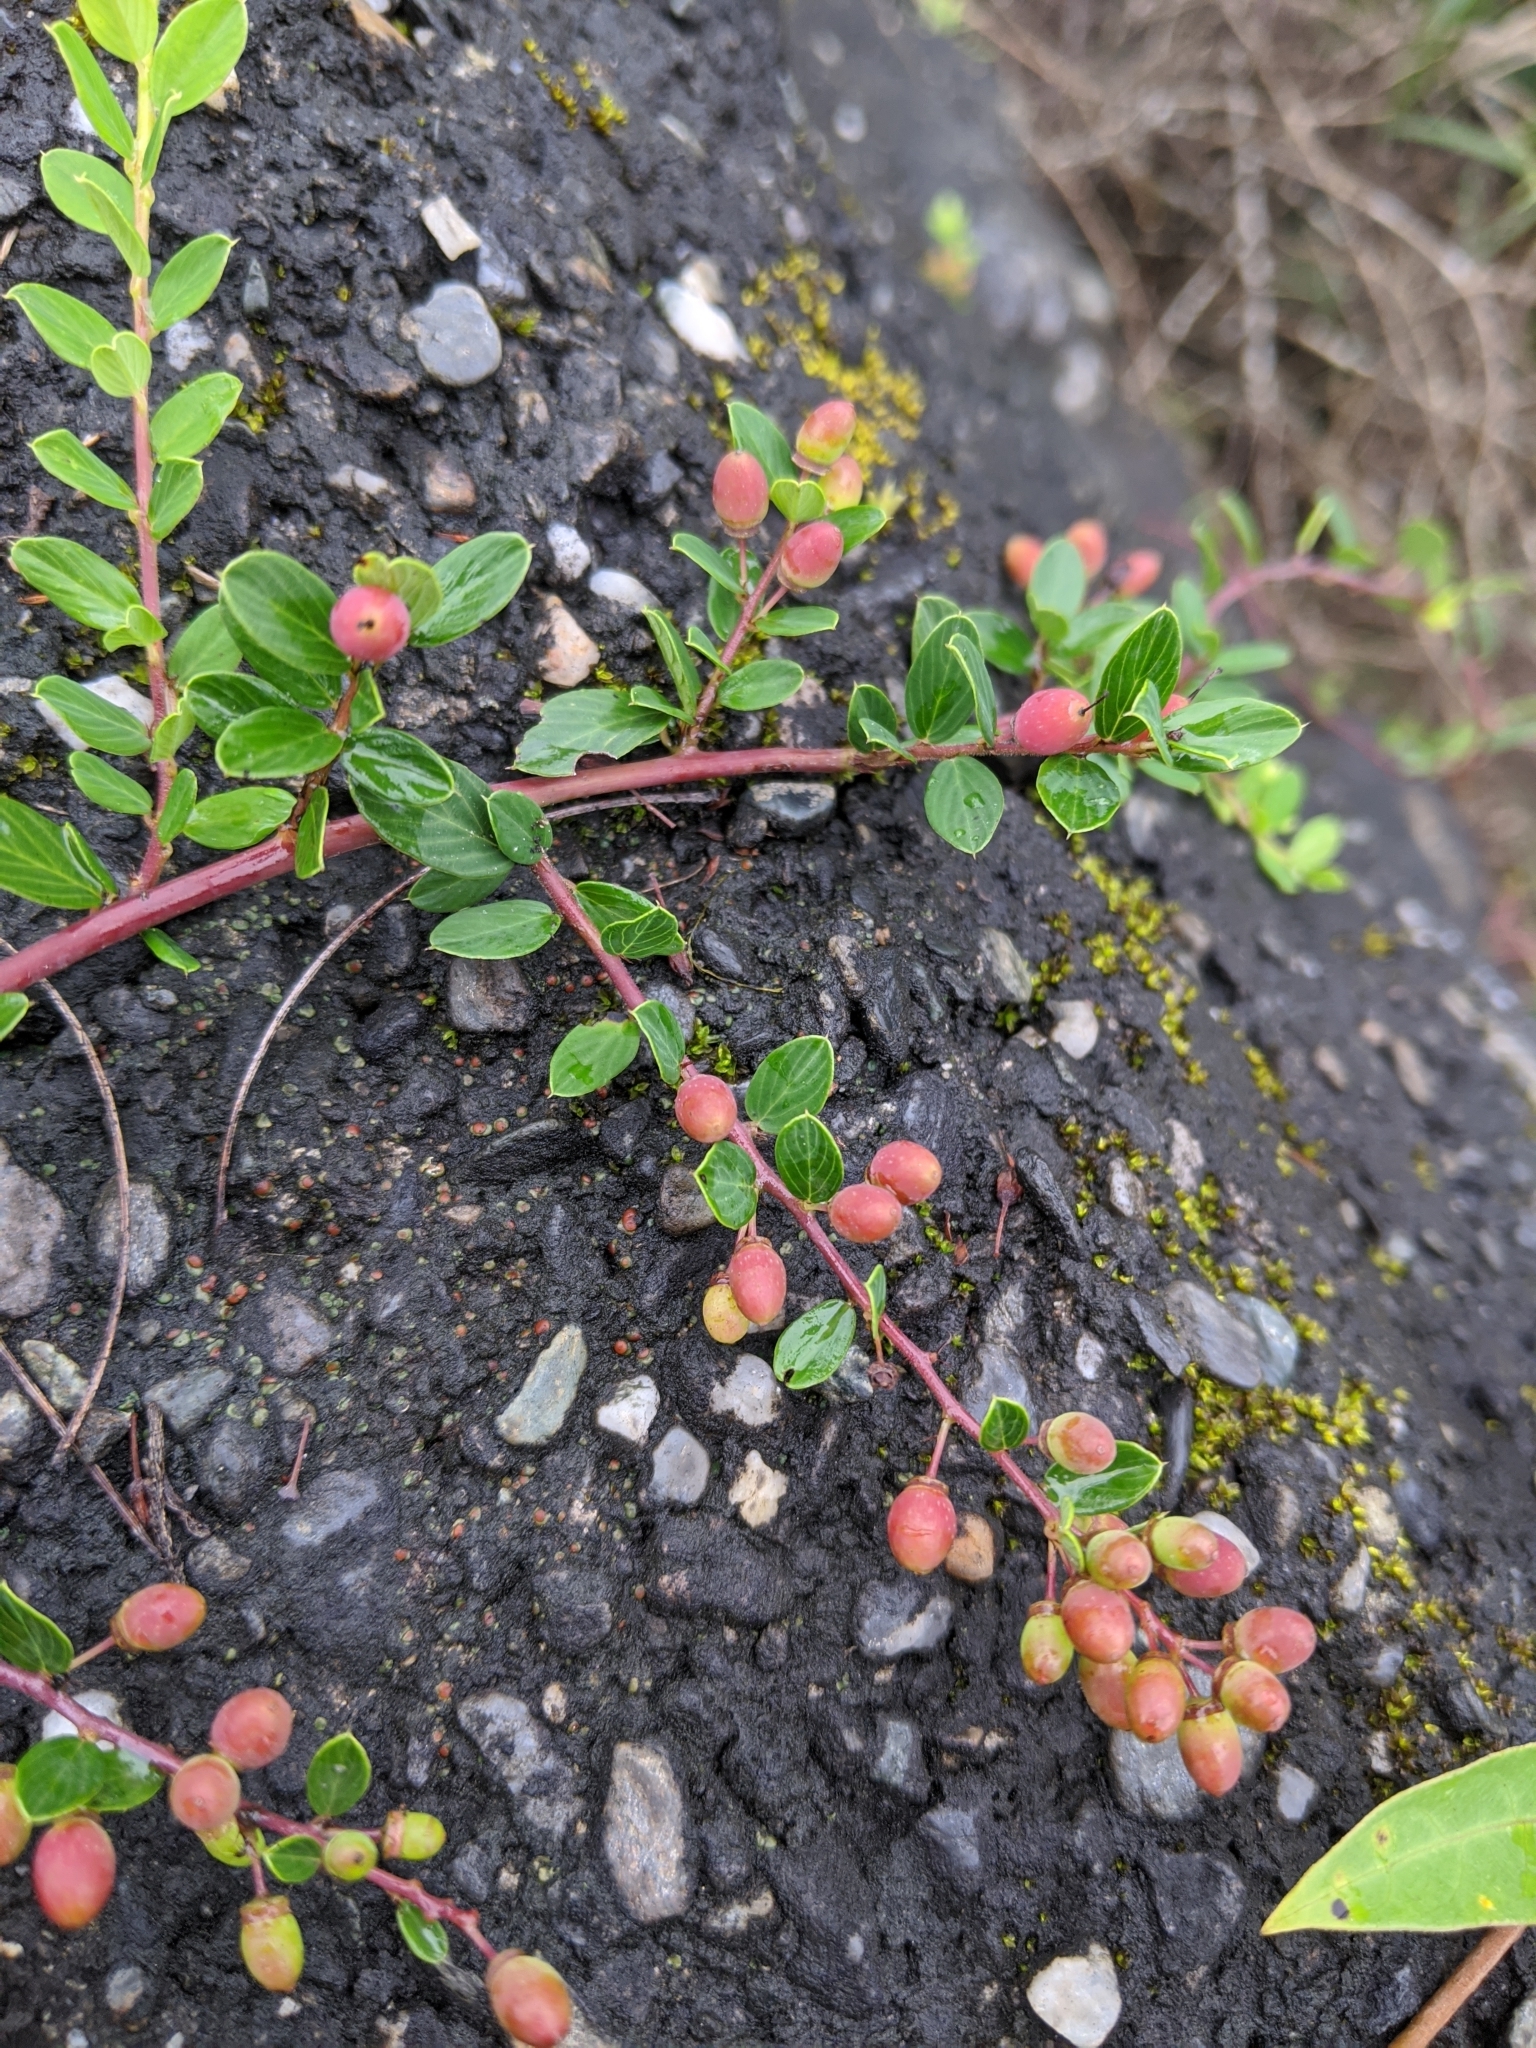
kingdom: Plantae
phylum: Tracheophyta
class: Magnoliopsida
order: Rosales
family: Rhamnaceae
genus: Berchemia
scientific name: Berchemia lineata
